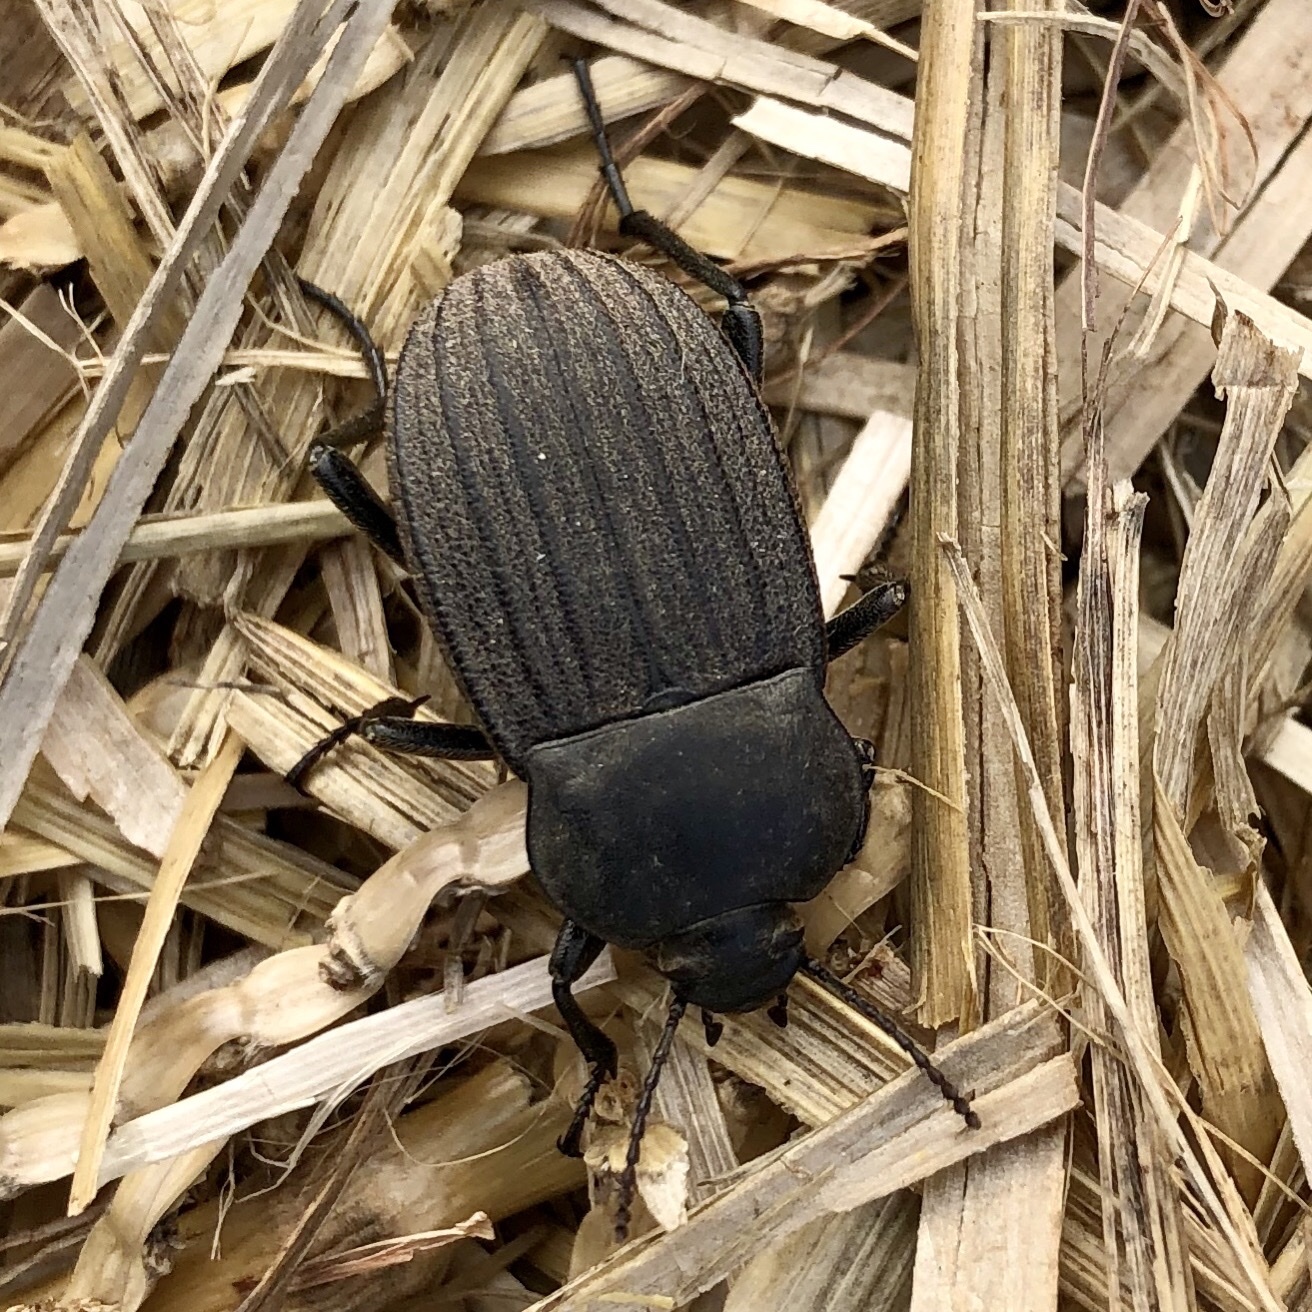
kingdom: Animalia
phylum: Arthropoda
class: Insecta
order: Coleoptera
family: Tenebrionidae
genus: Eleodes
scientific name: Eleodes tricostata
